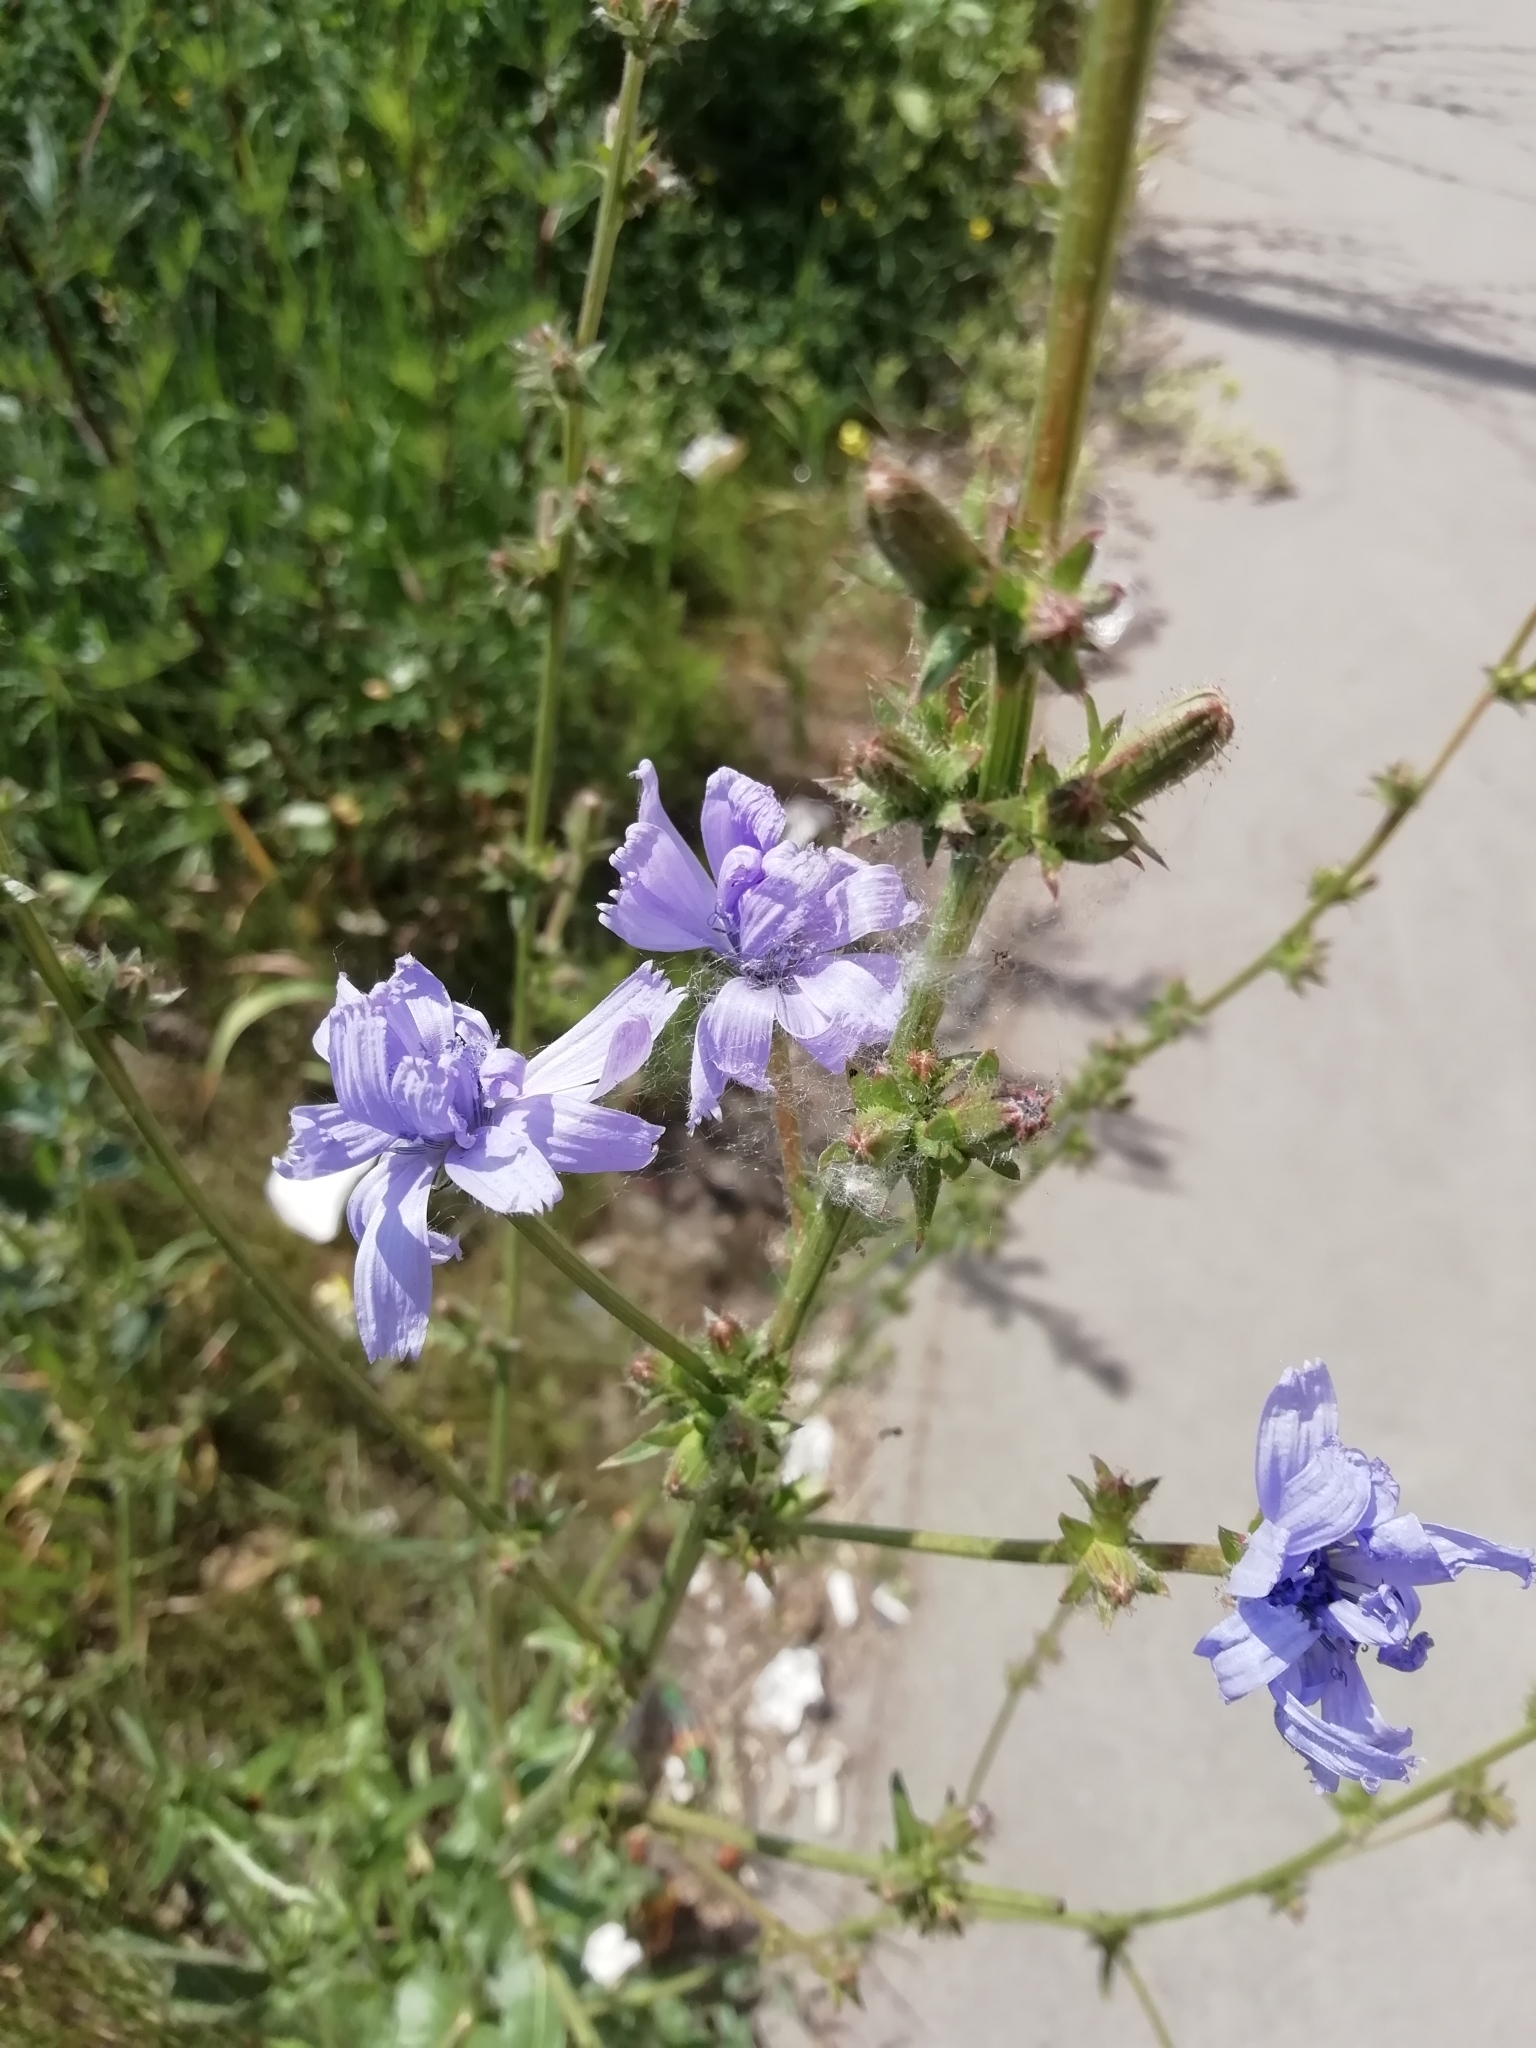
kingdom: Plantae
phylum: Tracheophyta
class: Magnoliopsida
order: Asterales
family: Asteraceae
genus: Cichorium
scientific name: Cichorium intybus
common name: Chicory
